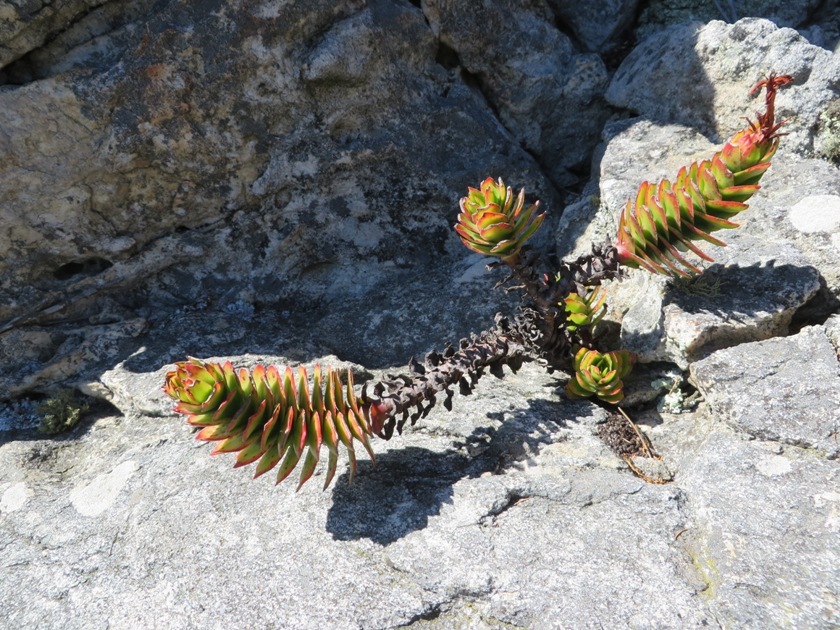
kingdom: Plantae
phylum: Tracheophyta
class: Magnoliopsida
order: Saxifragales
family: Crassulaceae
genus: Crassula
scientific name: Crassula coccinea
